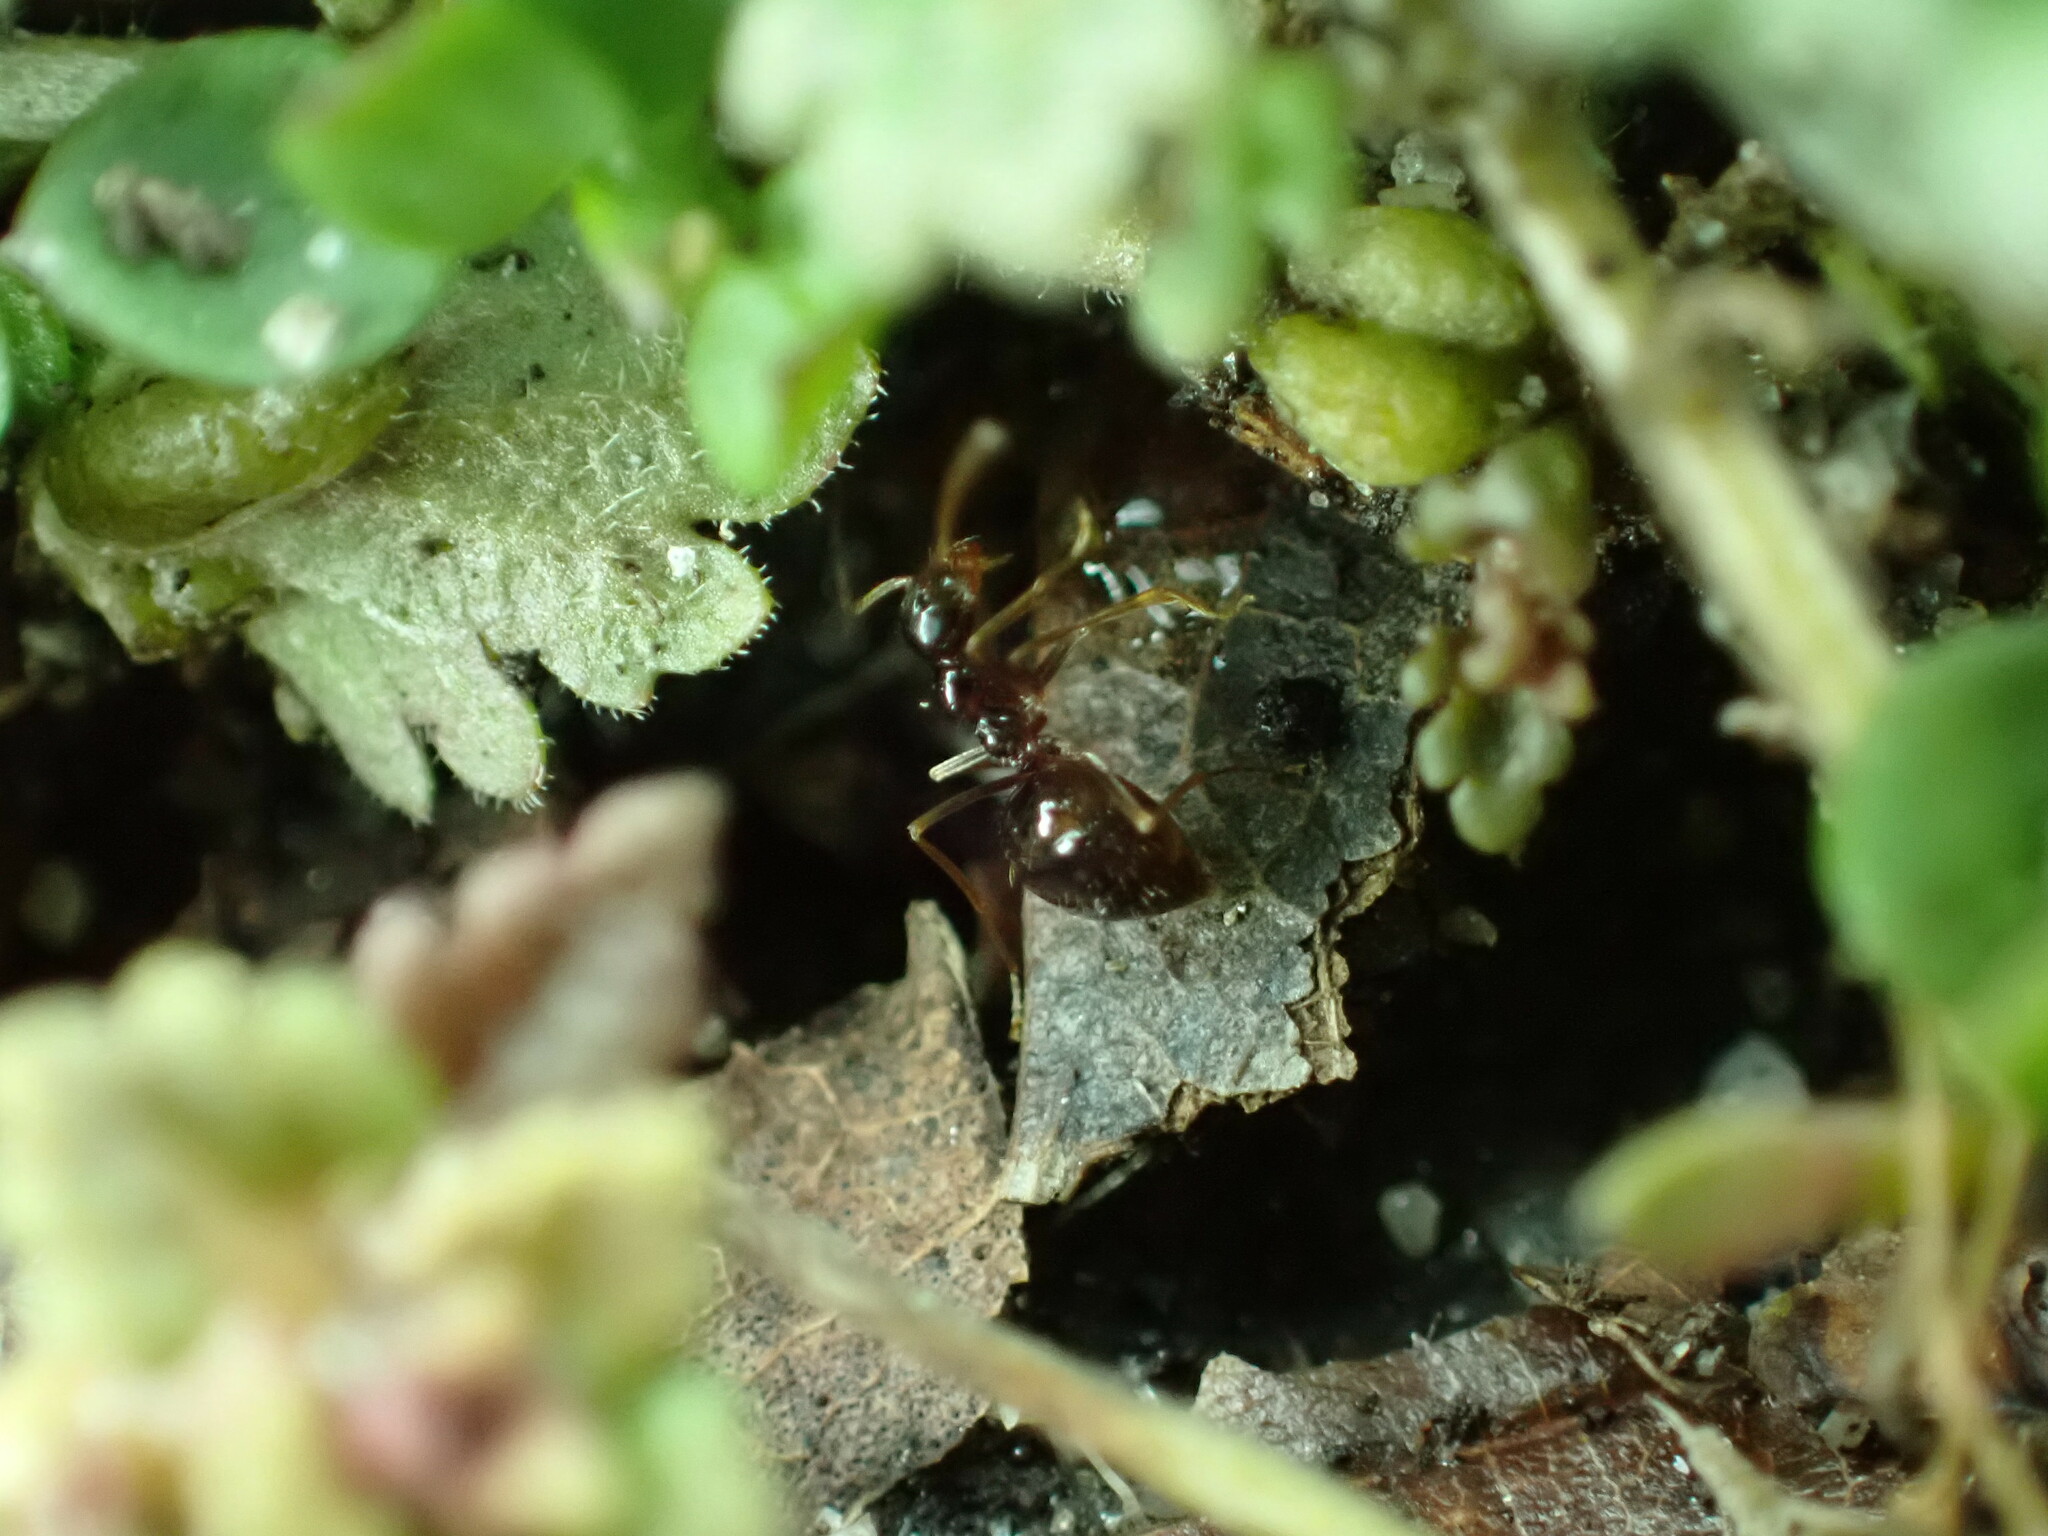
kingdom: Animalia
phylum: Arthropoda
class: Insecta
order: Hymenoptera
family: Formicidae
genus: Prenolepis
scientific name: Prenolepis imparis
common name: Small honey ant
